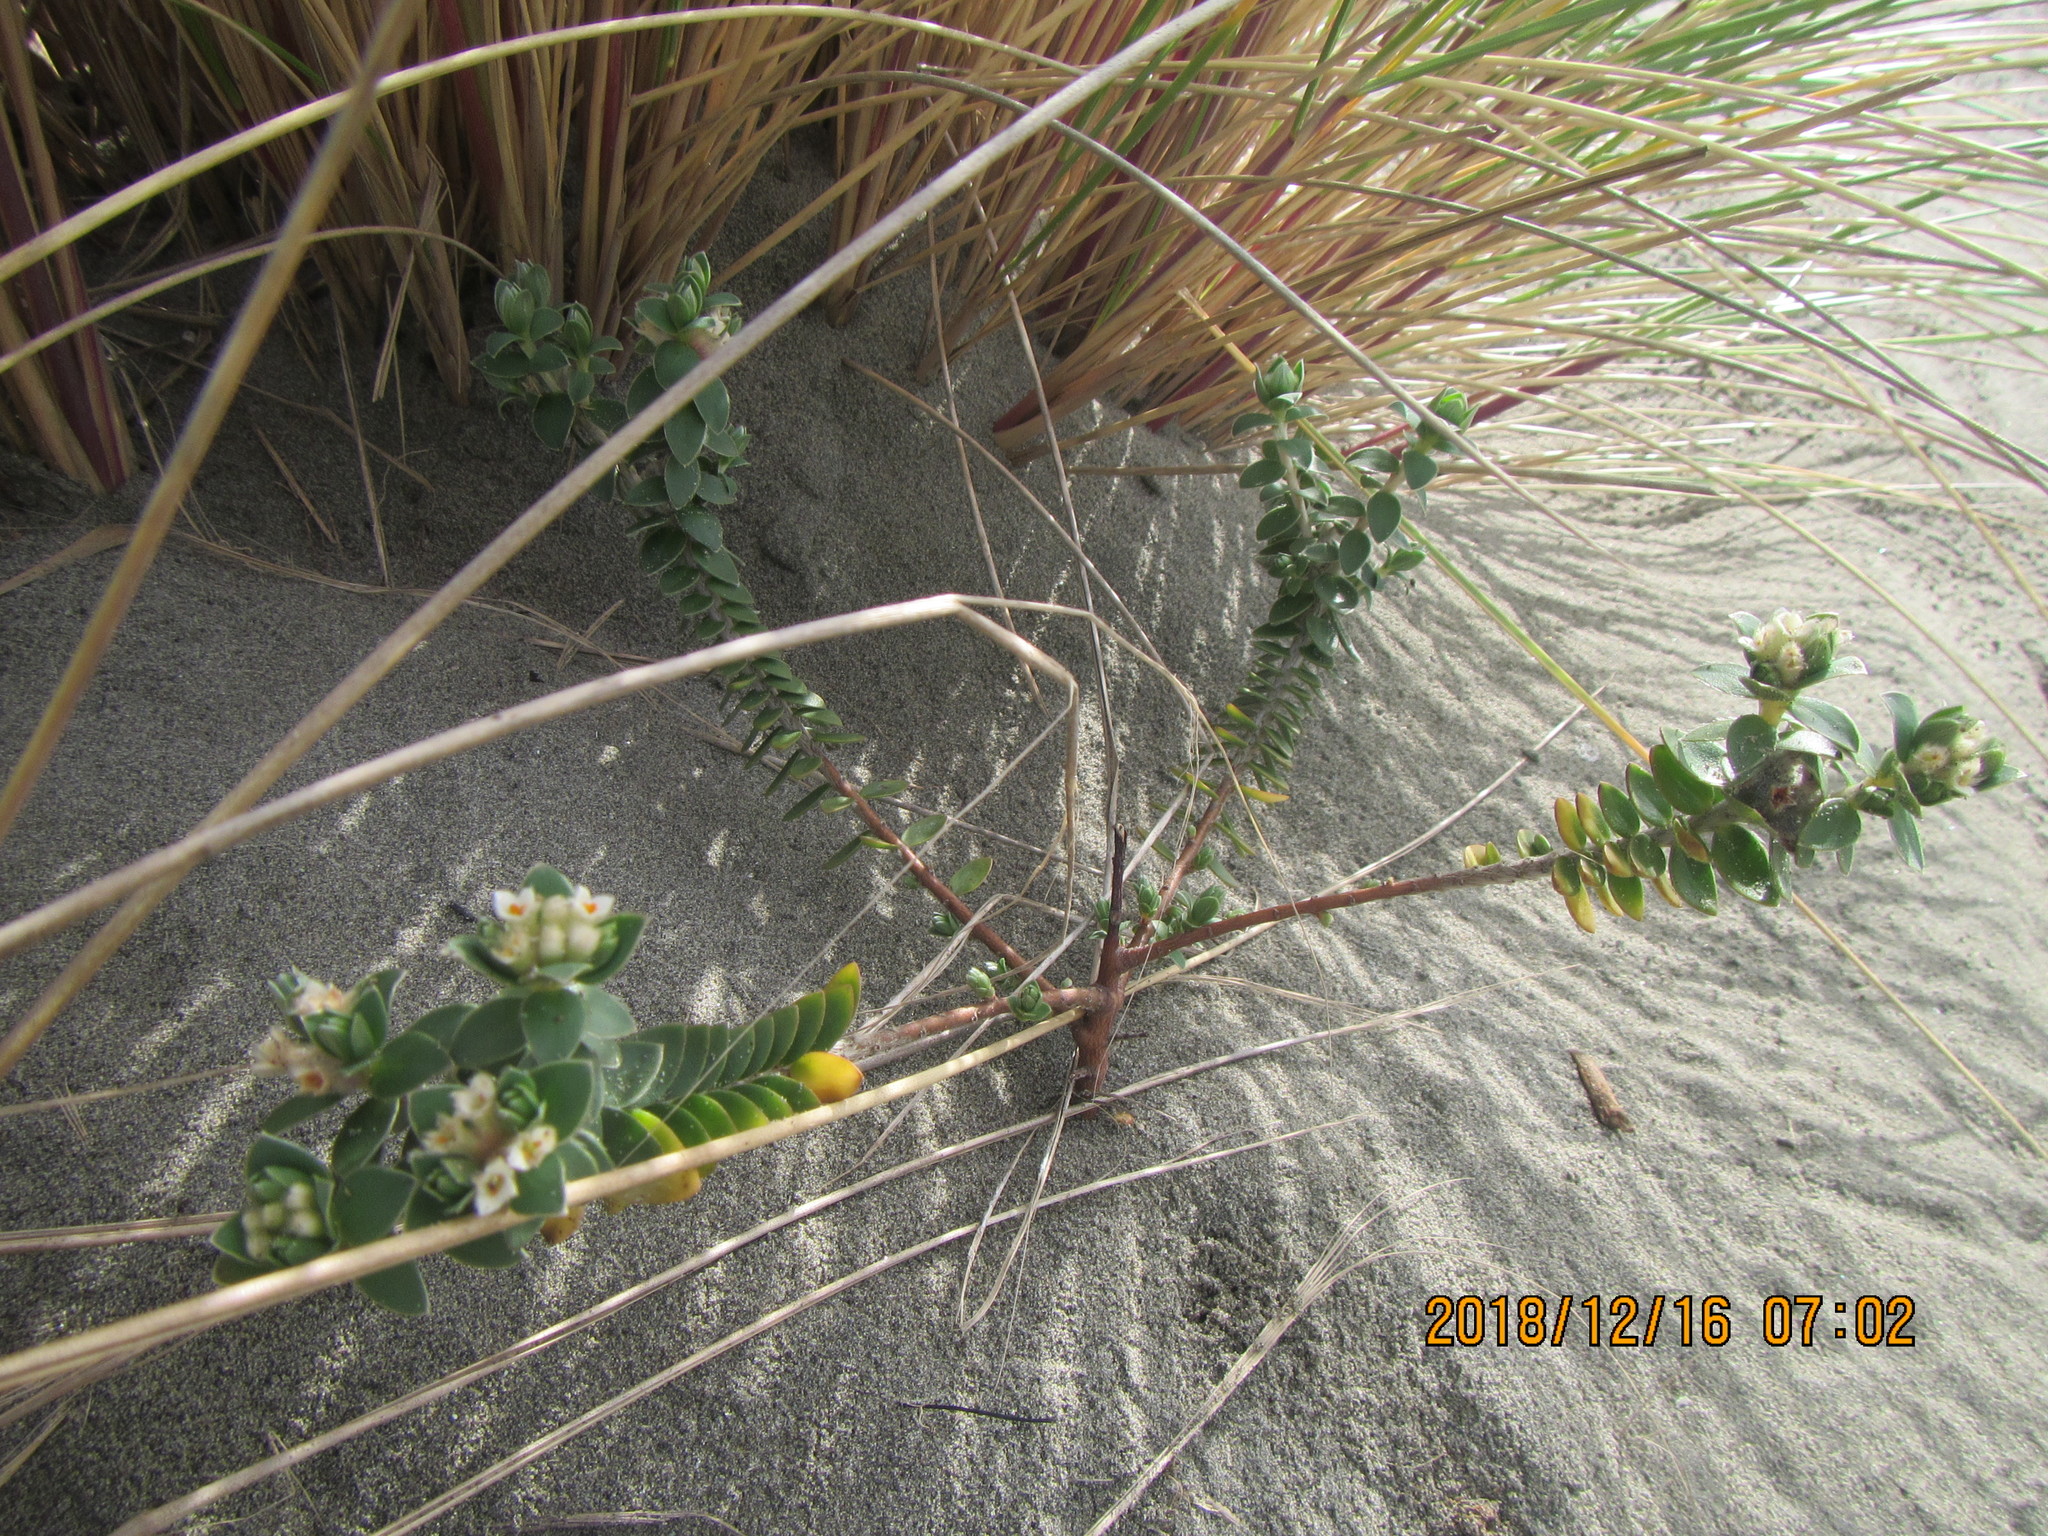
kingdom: Plantae
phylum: Tracheophyta
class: Magnoliopsida
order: Malvales
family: Thymelaeaceae
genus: Pimelea
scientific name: Pimelea villosa
